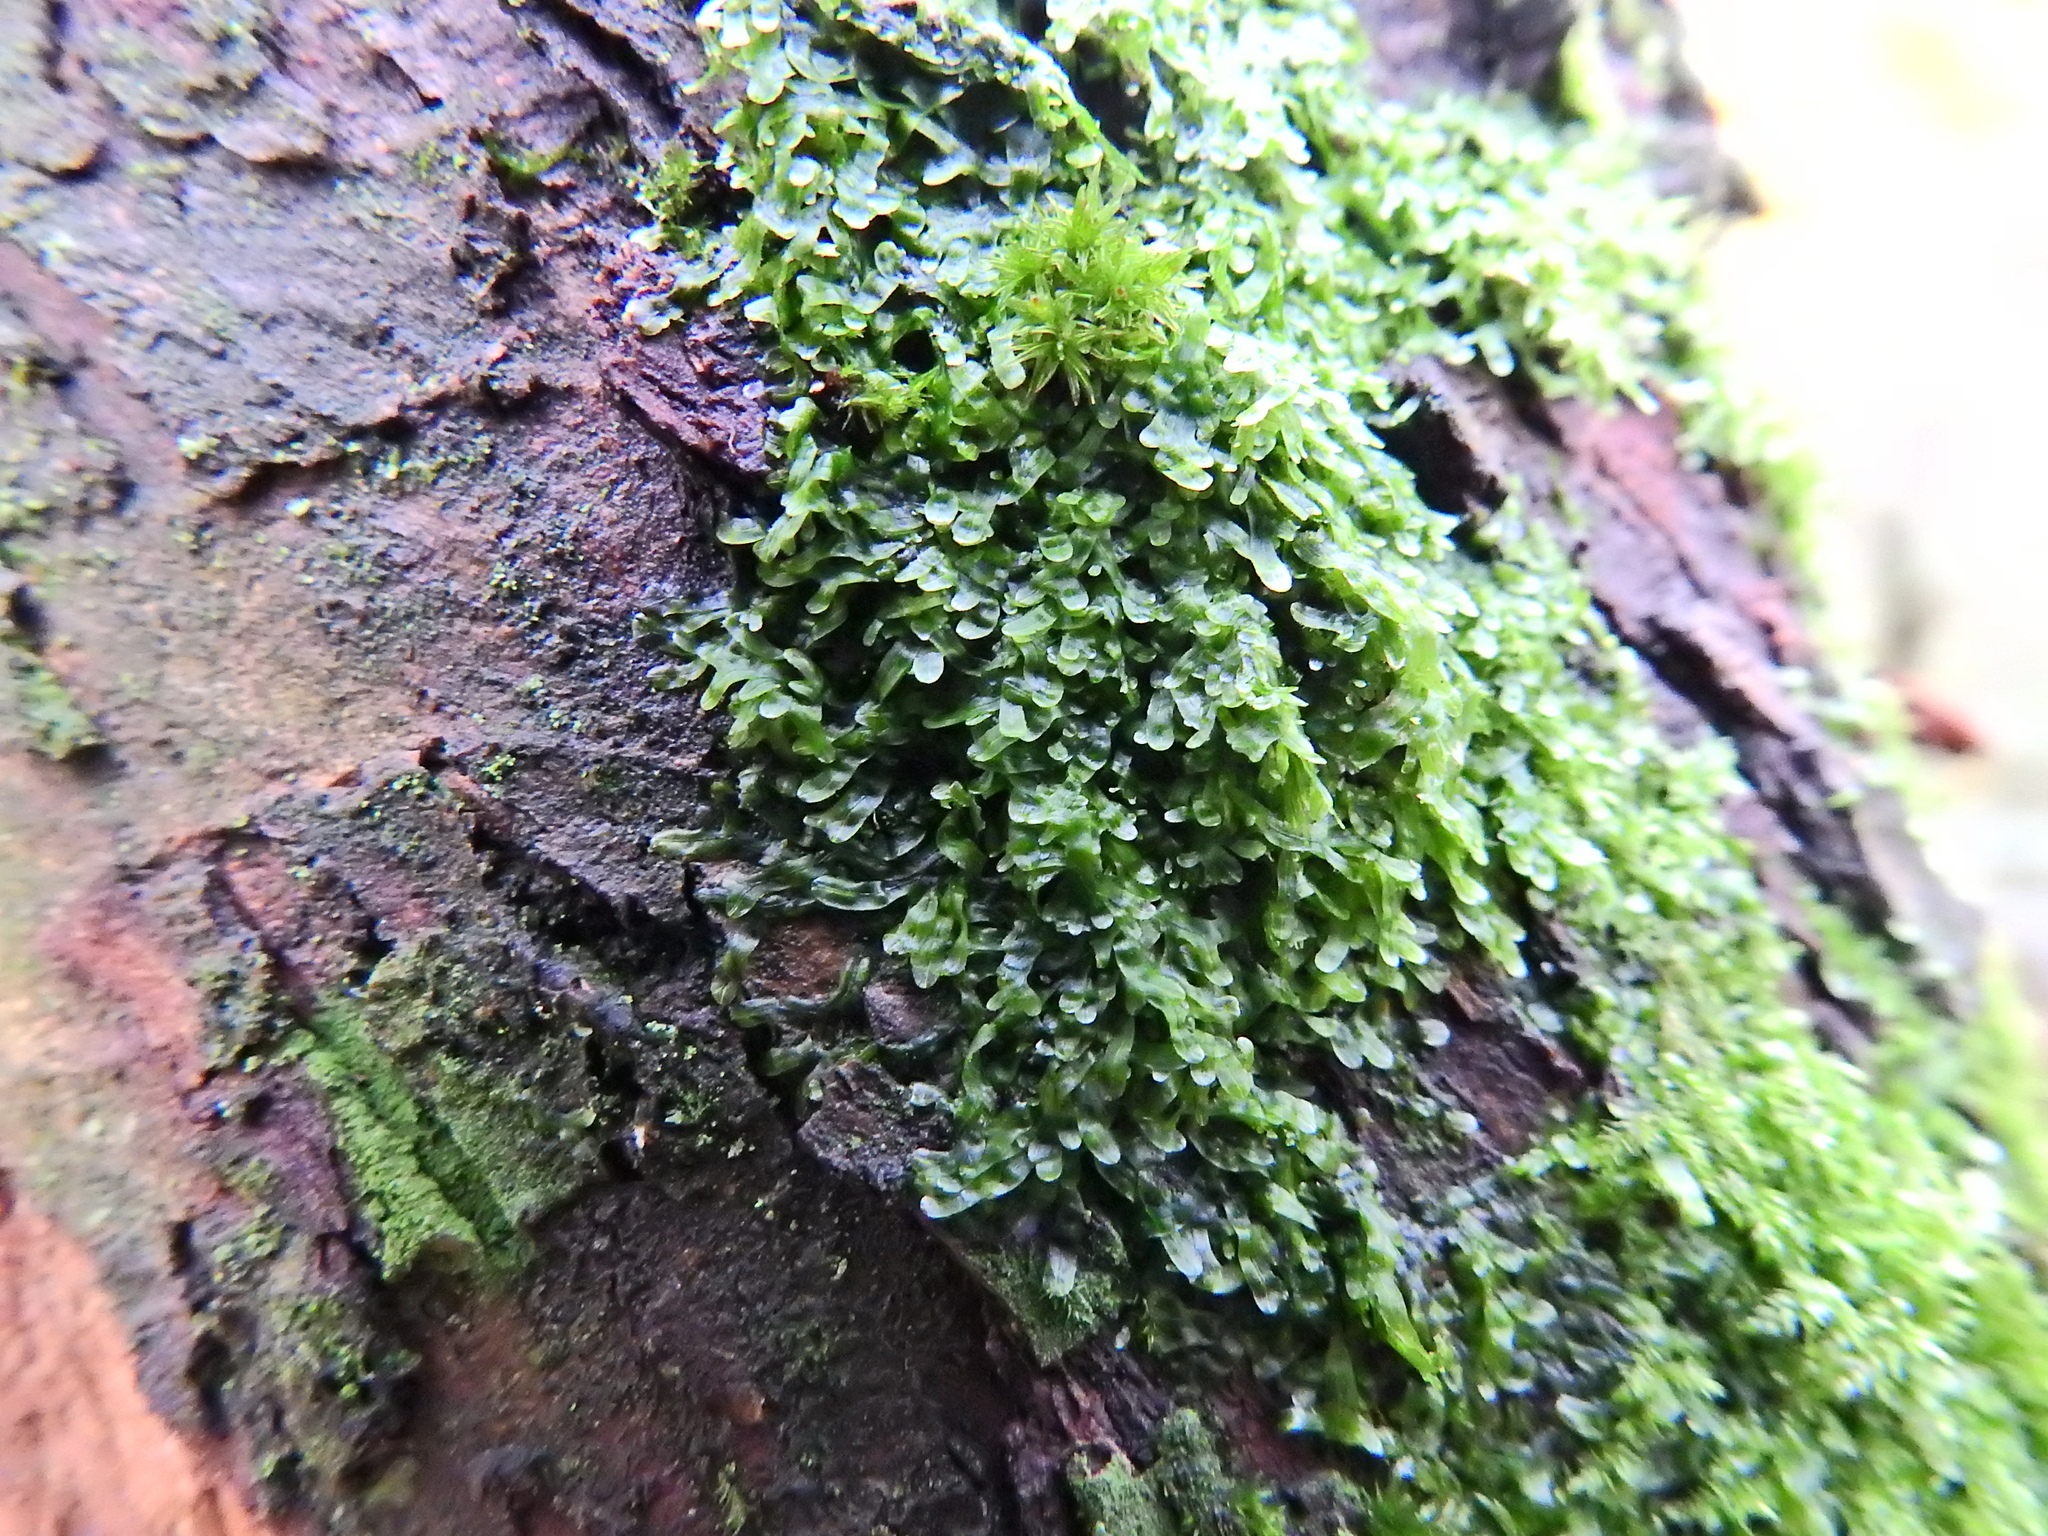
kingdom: Plantae
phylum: Marchantiophyta
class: Jungermanniopsida
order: Metzgeriales
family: Metzgeriaceae
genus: Metzgeria
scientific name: Metzgeria furcata
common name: Forked veilwort
